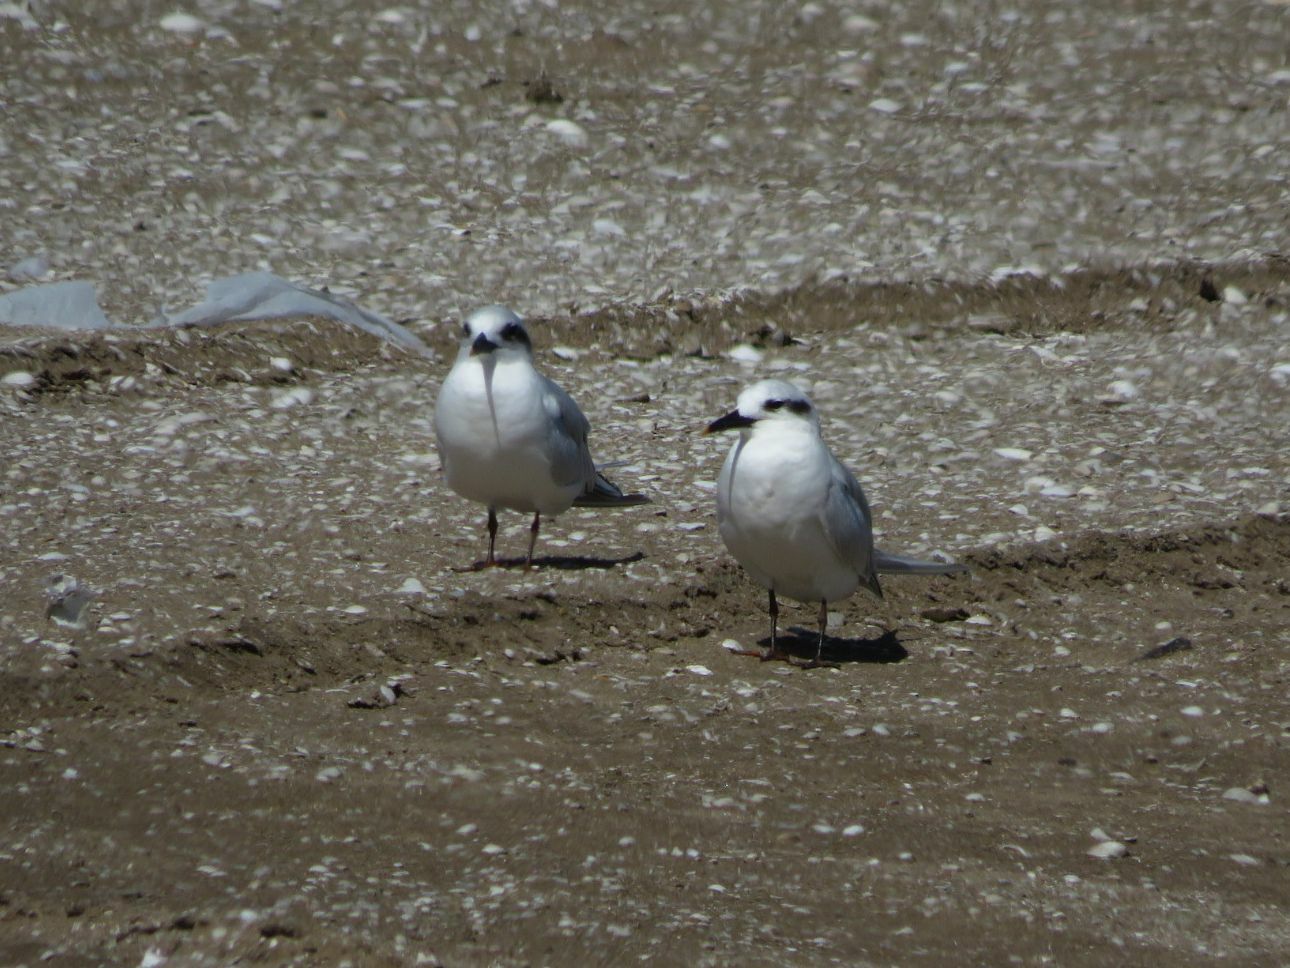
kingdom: Animalia
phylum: Chordata
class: Aves
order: Charadriiformes
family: Laridae
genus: Sterna
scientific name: Sterna trudeaui
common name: Snowy-crowned tern
